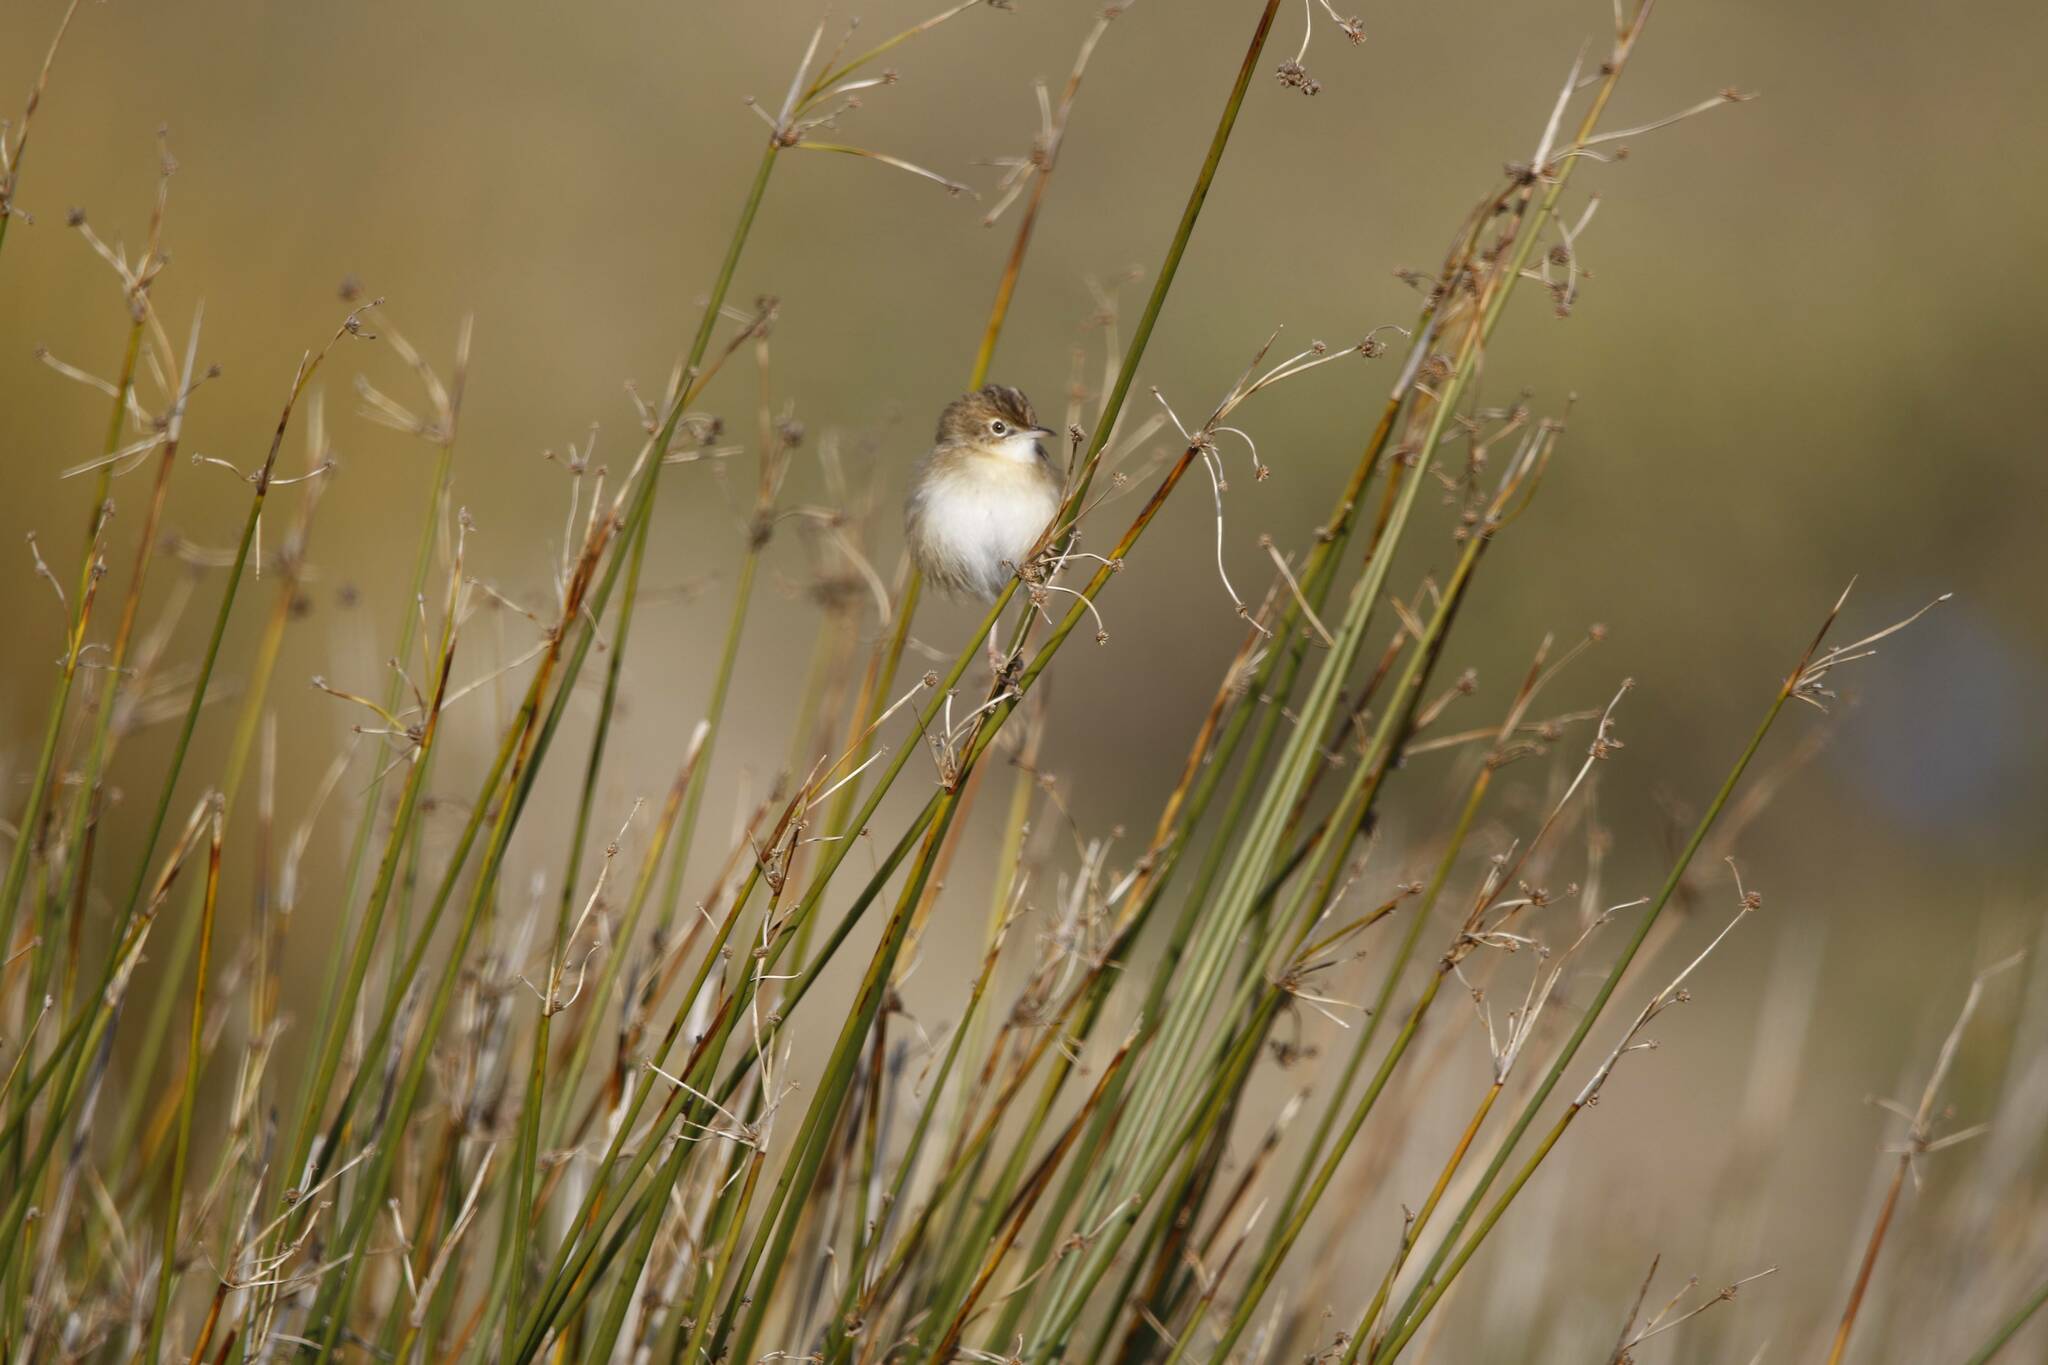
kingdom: Animalia
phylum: Chordata
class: Aves
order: Passeriformes
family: Cisticolidae
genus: Cisticola
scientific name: Cisticola juncidis
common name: Zitting cisticola
